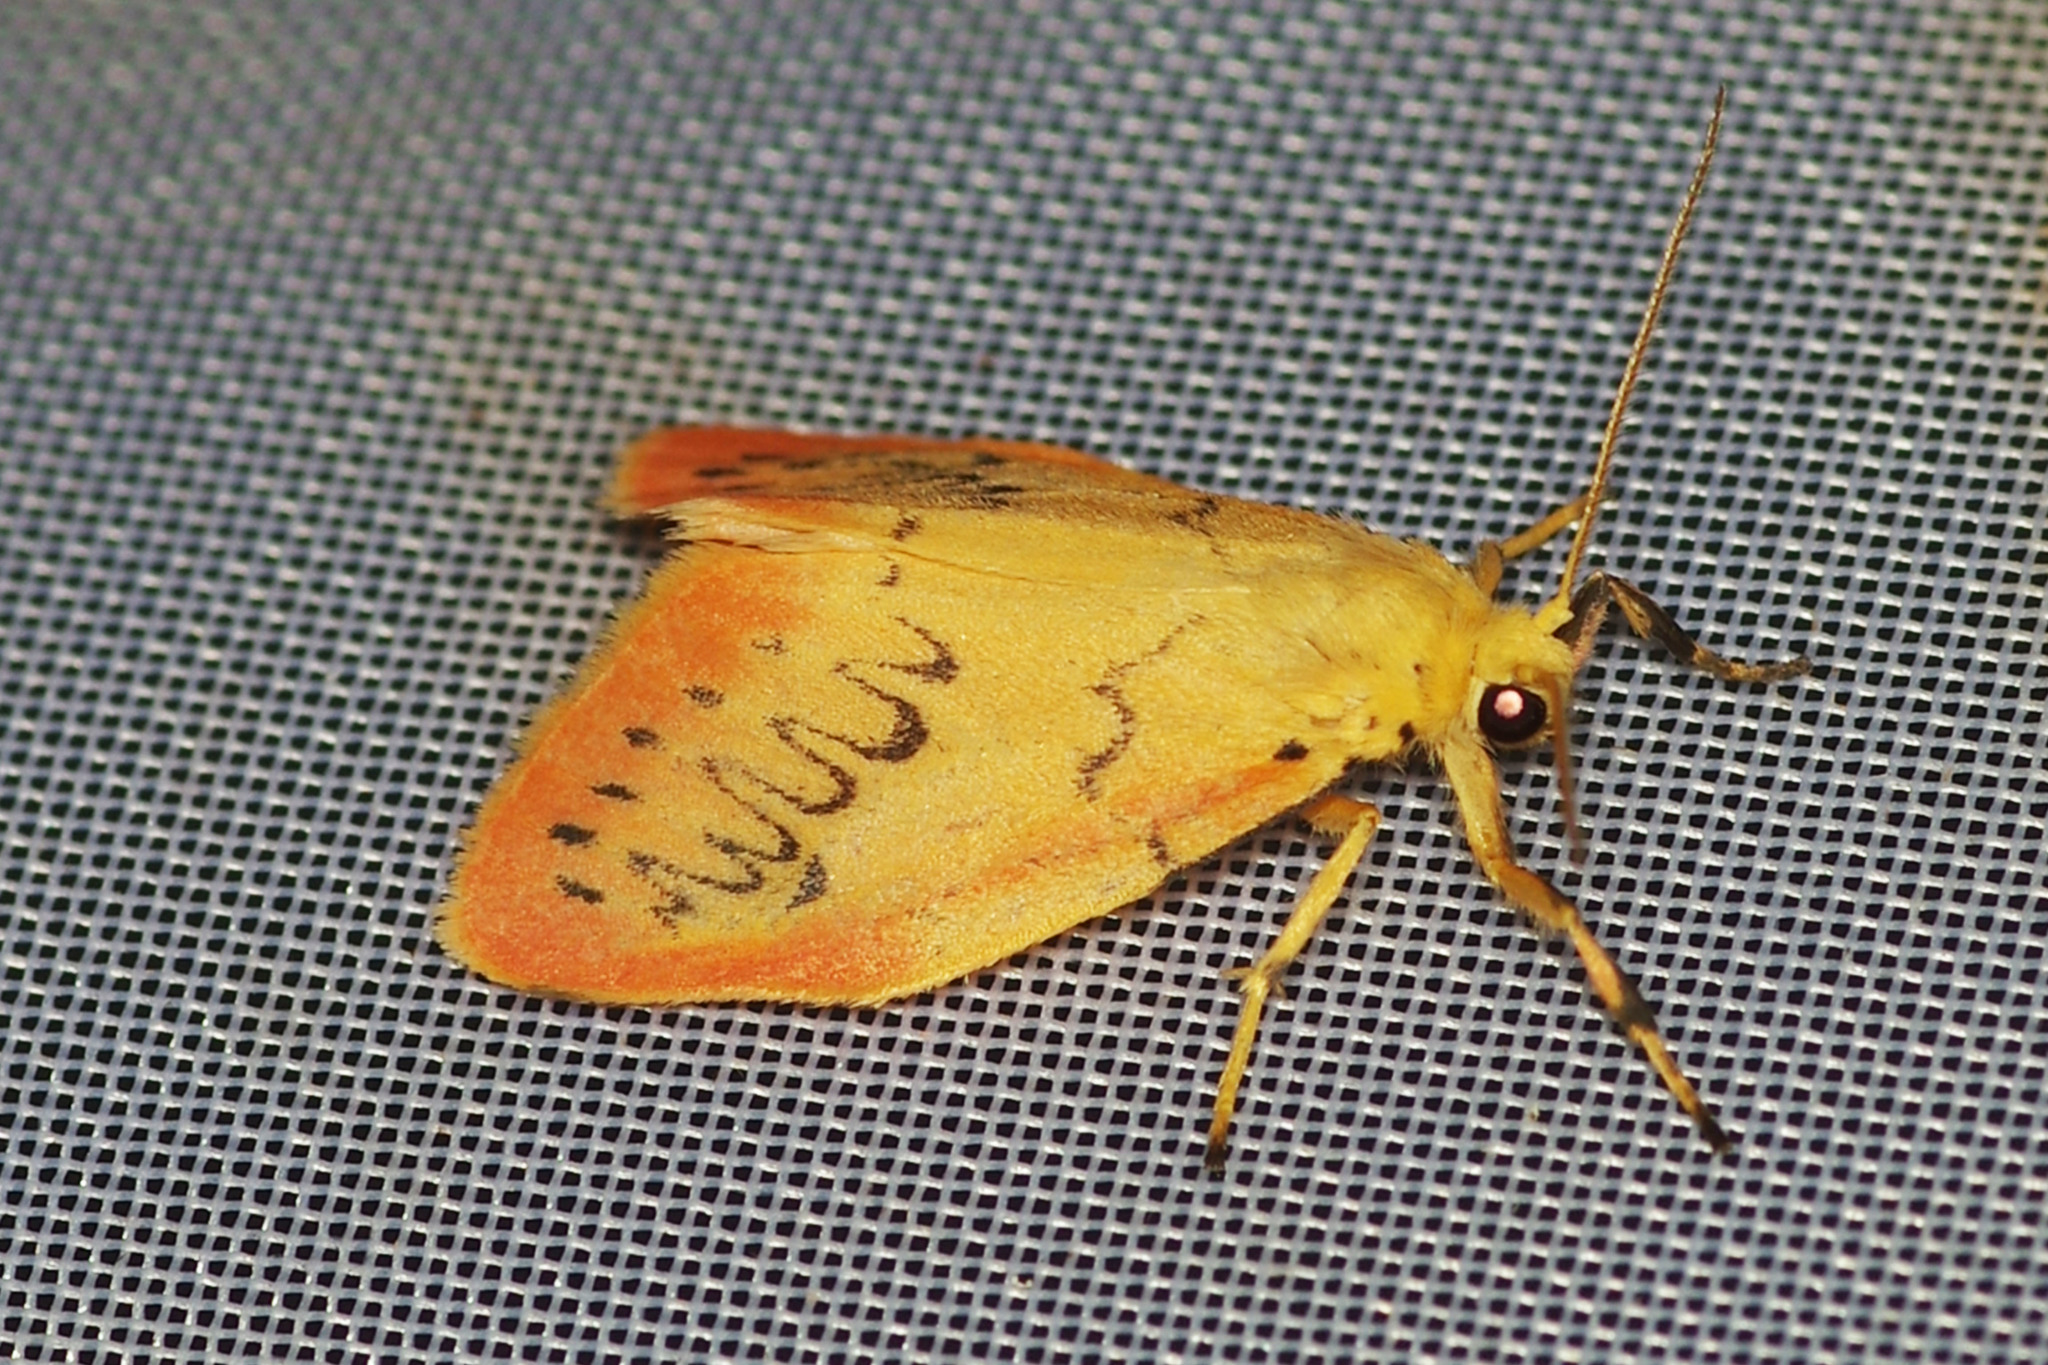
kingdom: Animalia
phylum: Arthropoda
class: Insecta
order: Lepidoptera
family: Erebidae
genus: Miltochrista
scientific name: Miltochrista miniata
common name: Rosy footman
